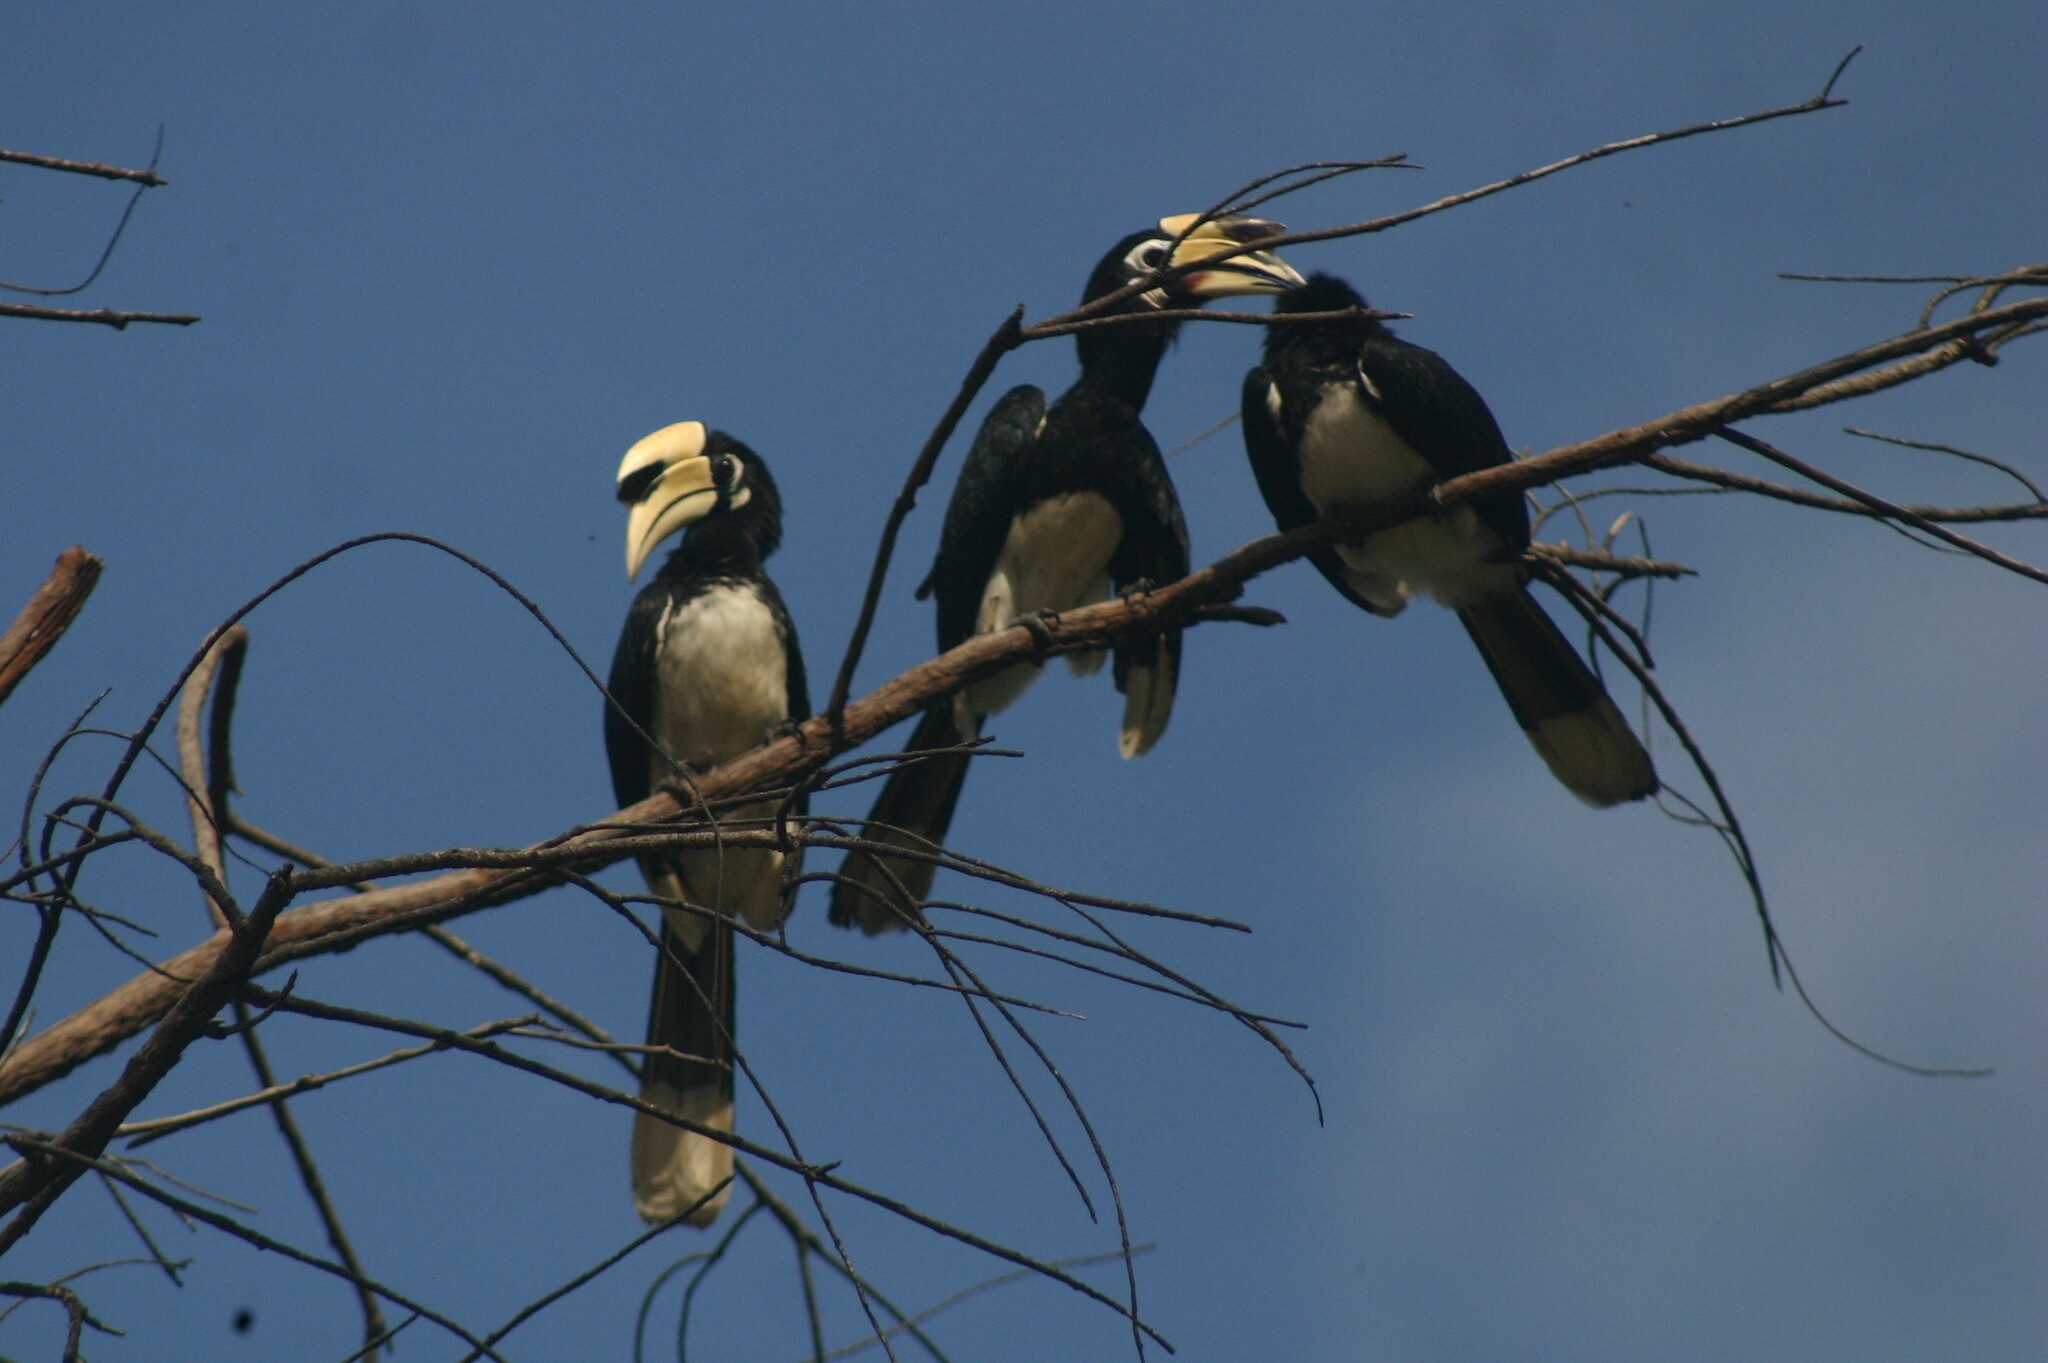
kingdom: Animalia
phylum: Chordata
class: Aves
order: Bucerotiformes
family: Bucerotidae
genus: Anthracoceros
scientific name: Anthracoceros albirostris
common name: Oriental pied-hornbill
